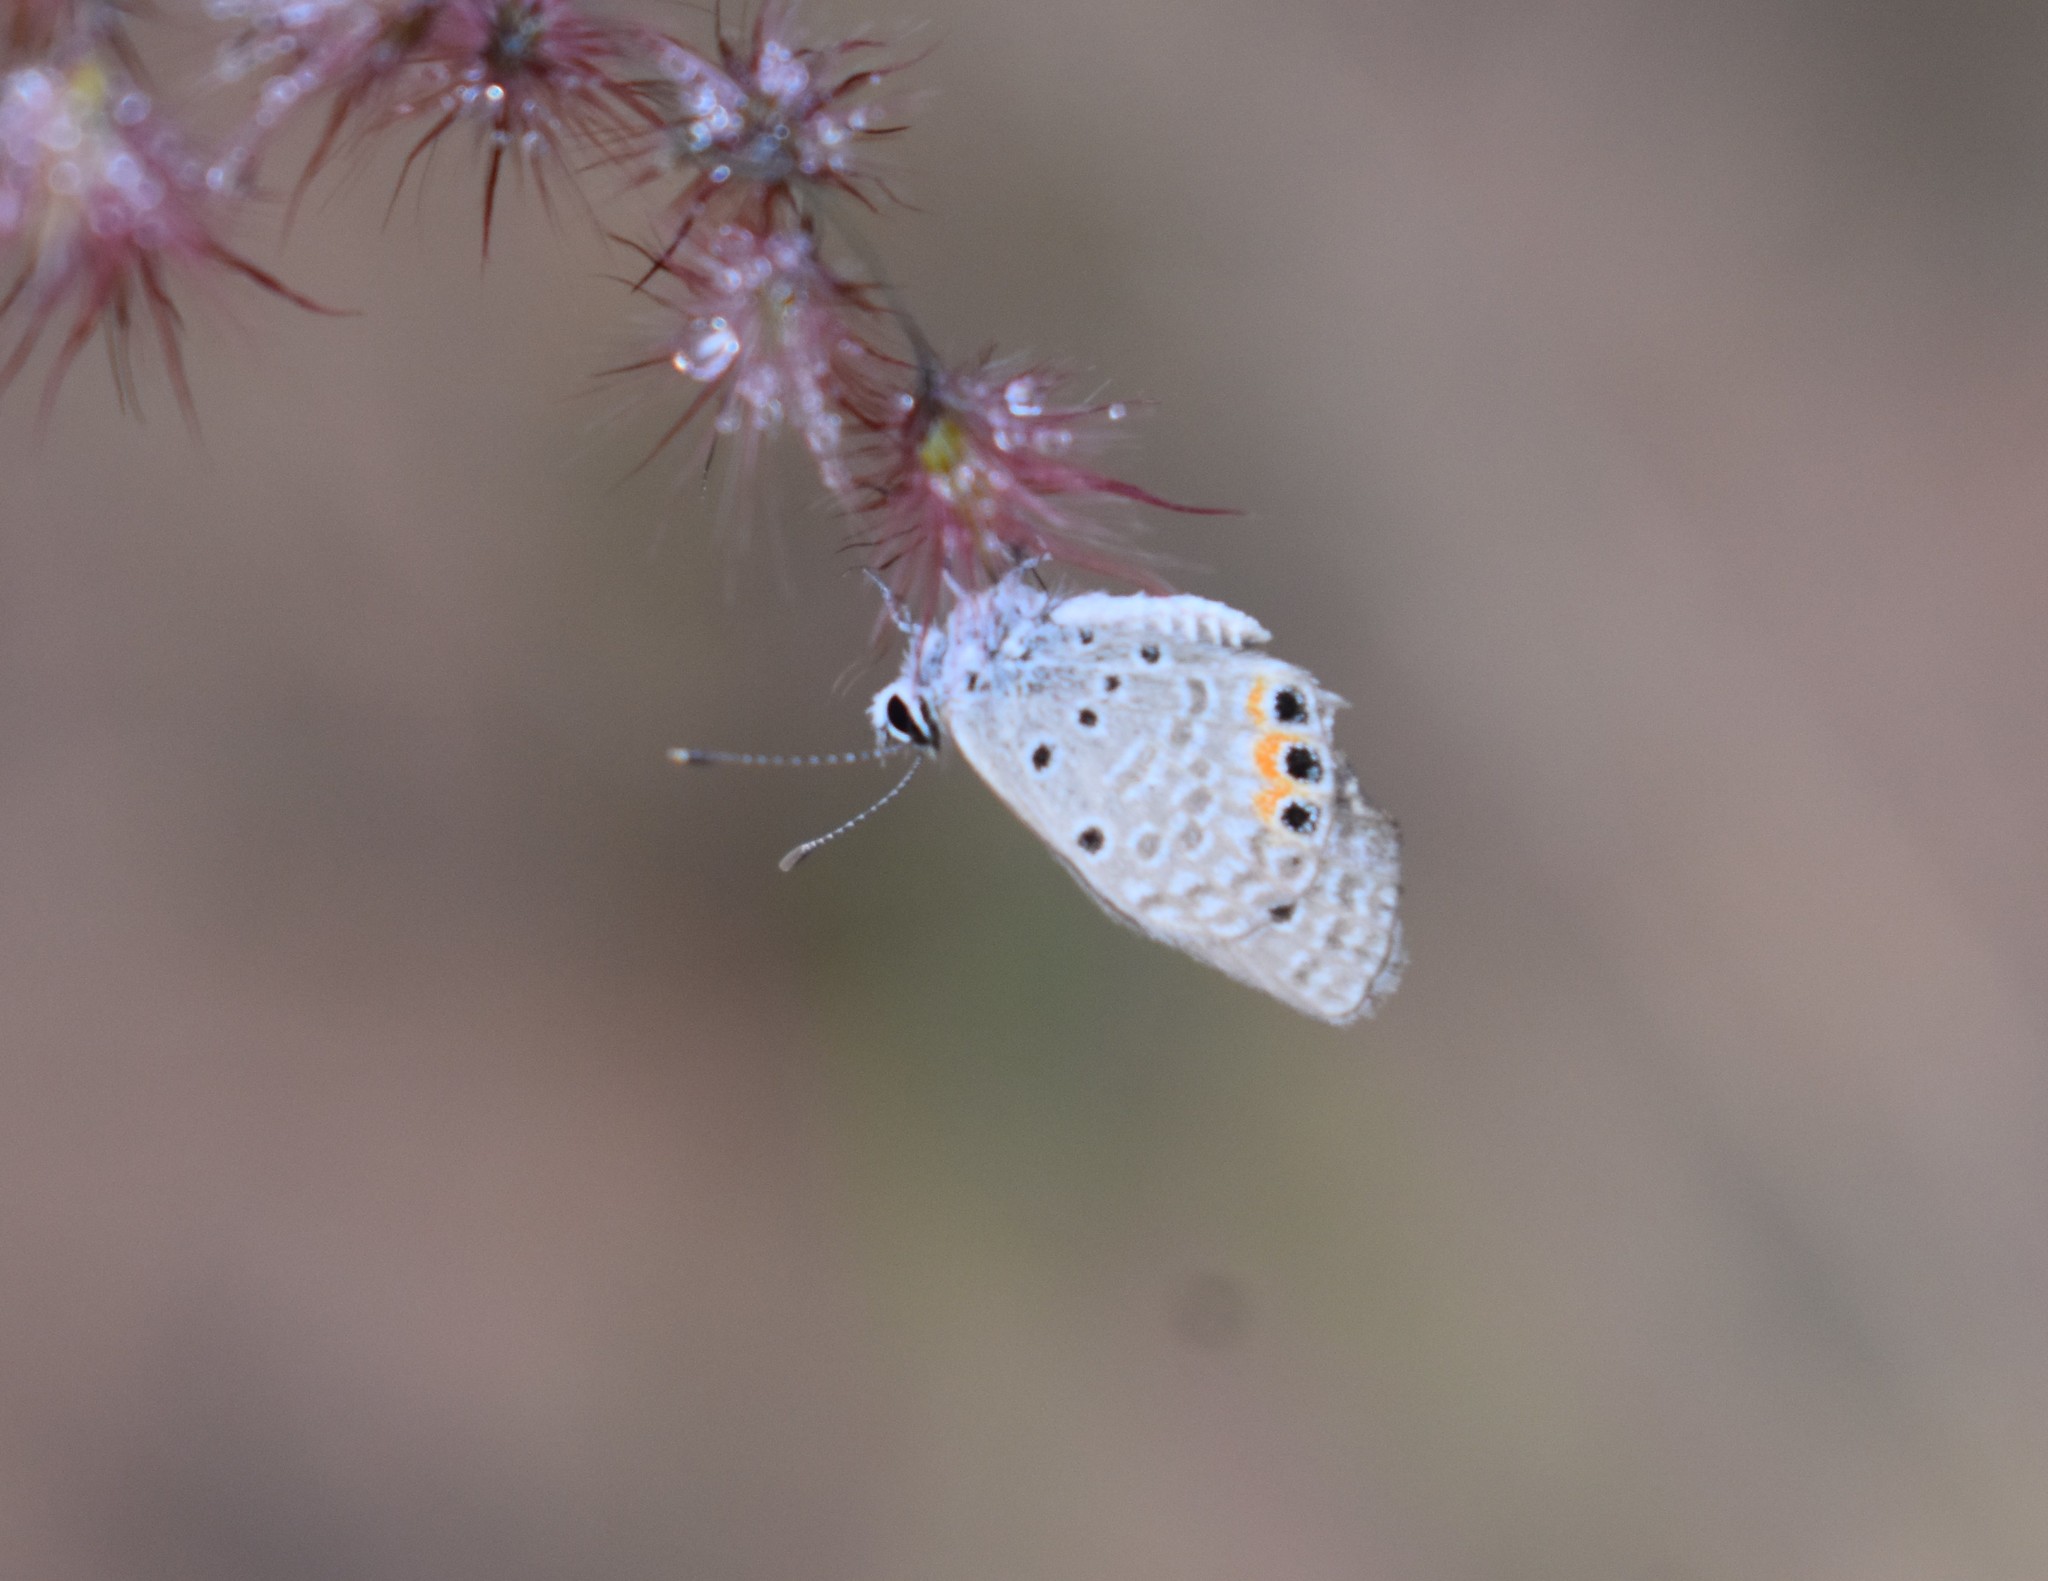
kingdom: Animalia
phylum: Arthropoda
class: Insecta
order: Lepidoptera
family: Lycaenidae
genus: Freyeria
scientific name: Freyeria trochylus
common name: Grass jewel
